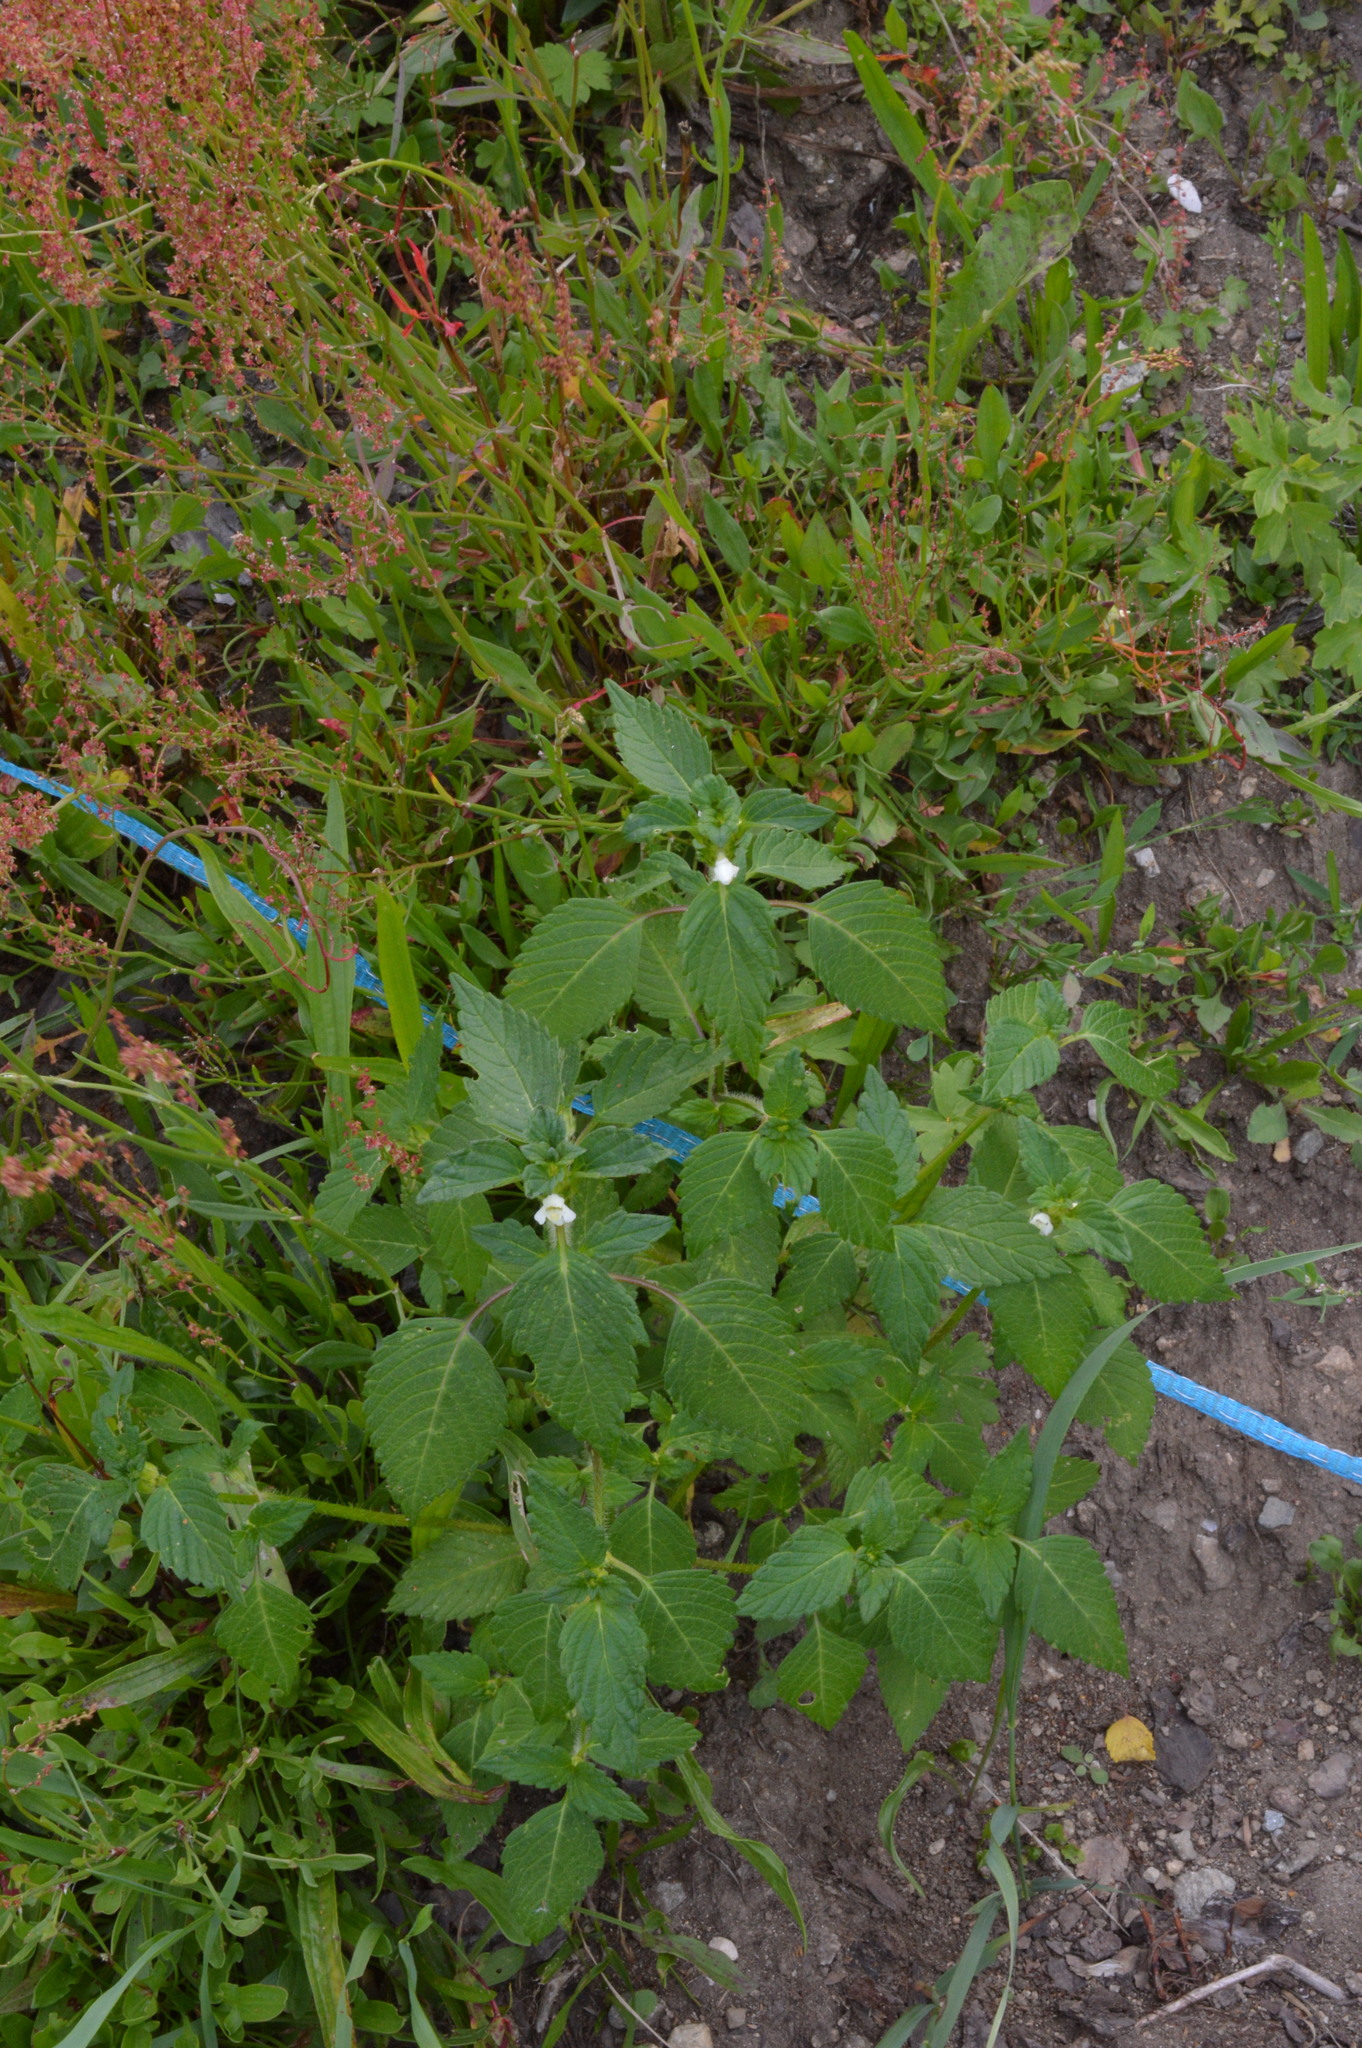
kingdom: Plantae
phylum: Tracheophyta
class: Magnoliopsida
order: Lamiales
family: Lamiaceae
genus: Galeopsis
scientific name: Galeopsis tetrahit
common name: Common hemp-nettle
